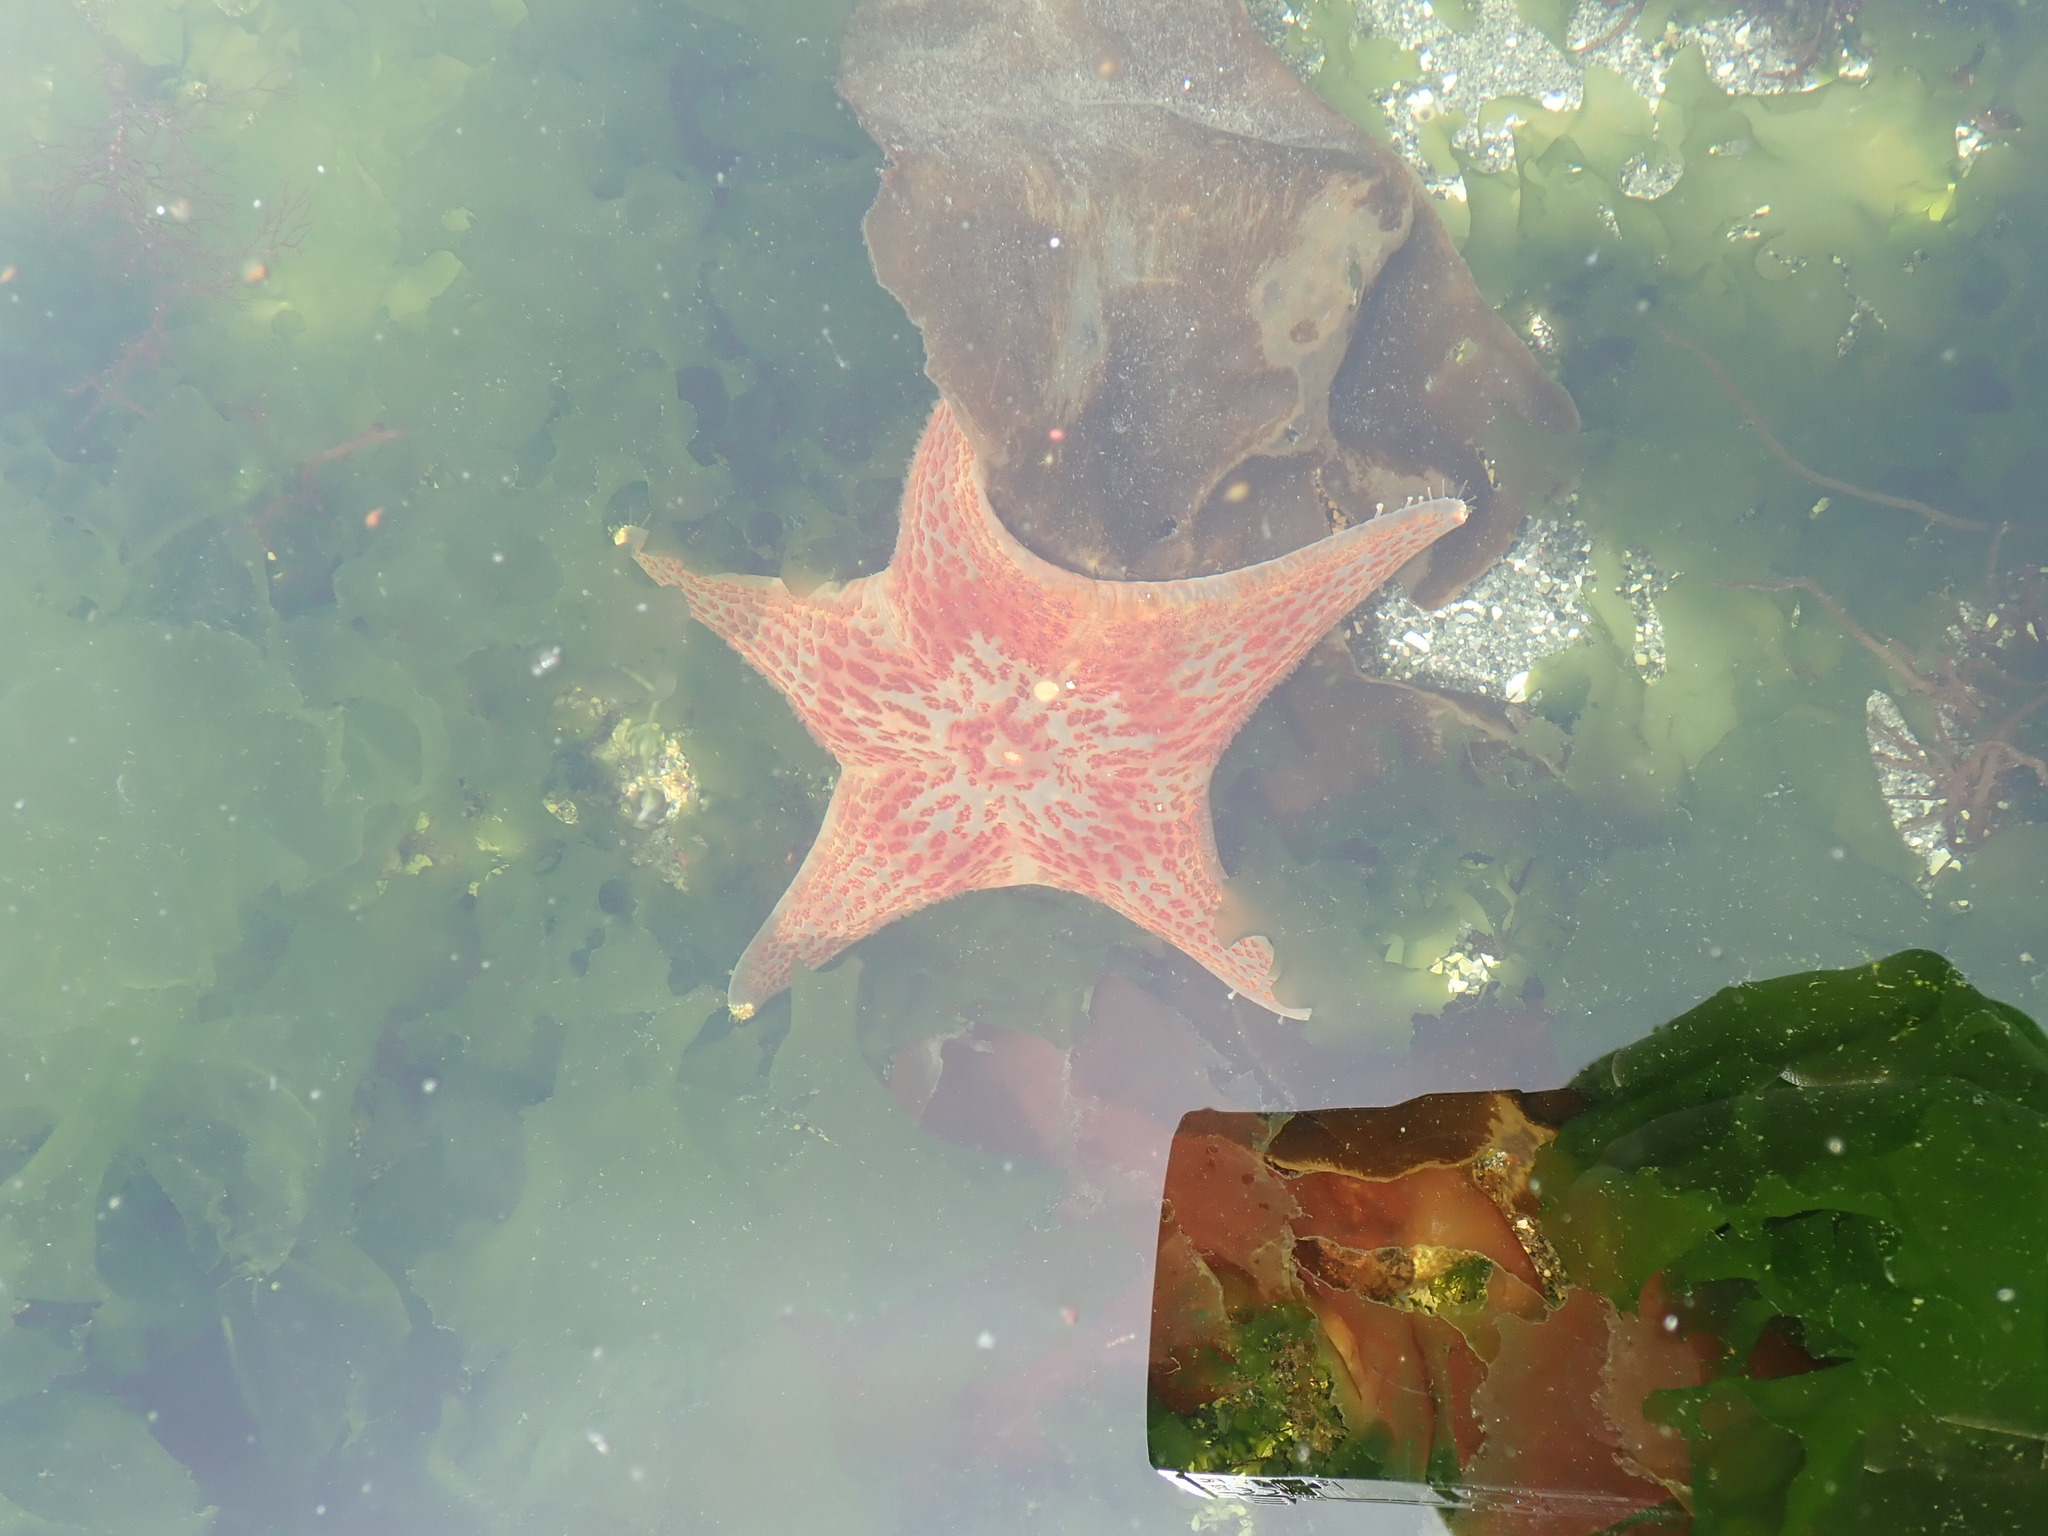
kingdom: Animalia
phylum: Echinodermata
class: Asteroidea
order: Valvatida
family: Asteropseidae
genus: Dermasterias
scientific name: Dermasterias imbricata
